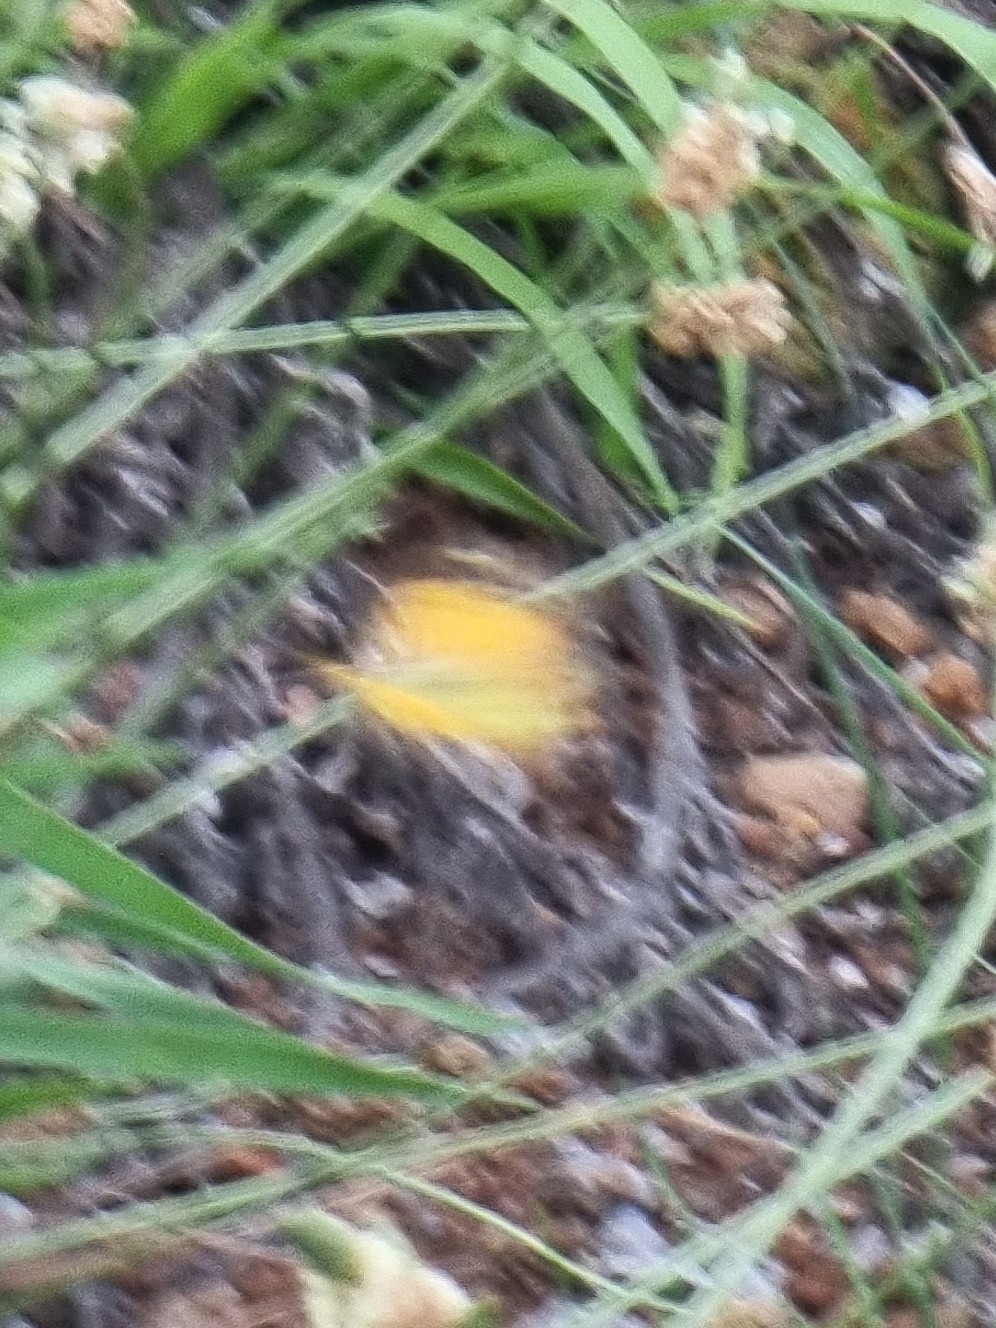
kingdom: Animalia
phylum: Arthropoda
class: Insecta
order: Lepidoptera
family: Pieridae
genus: Colias
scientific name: Colias croceus
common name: Clouded yellow
